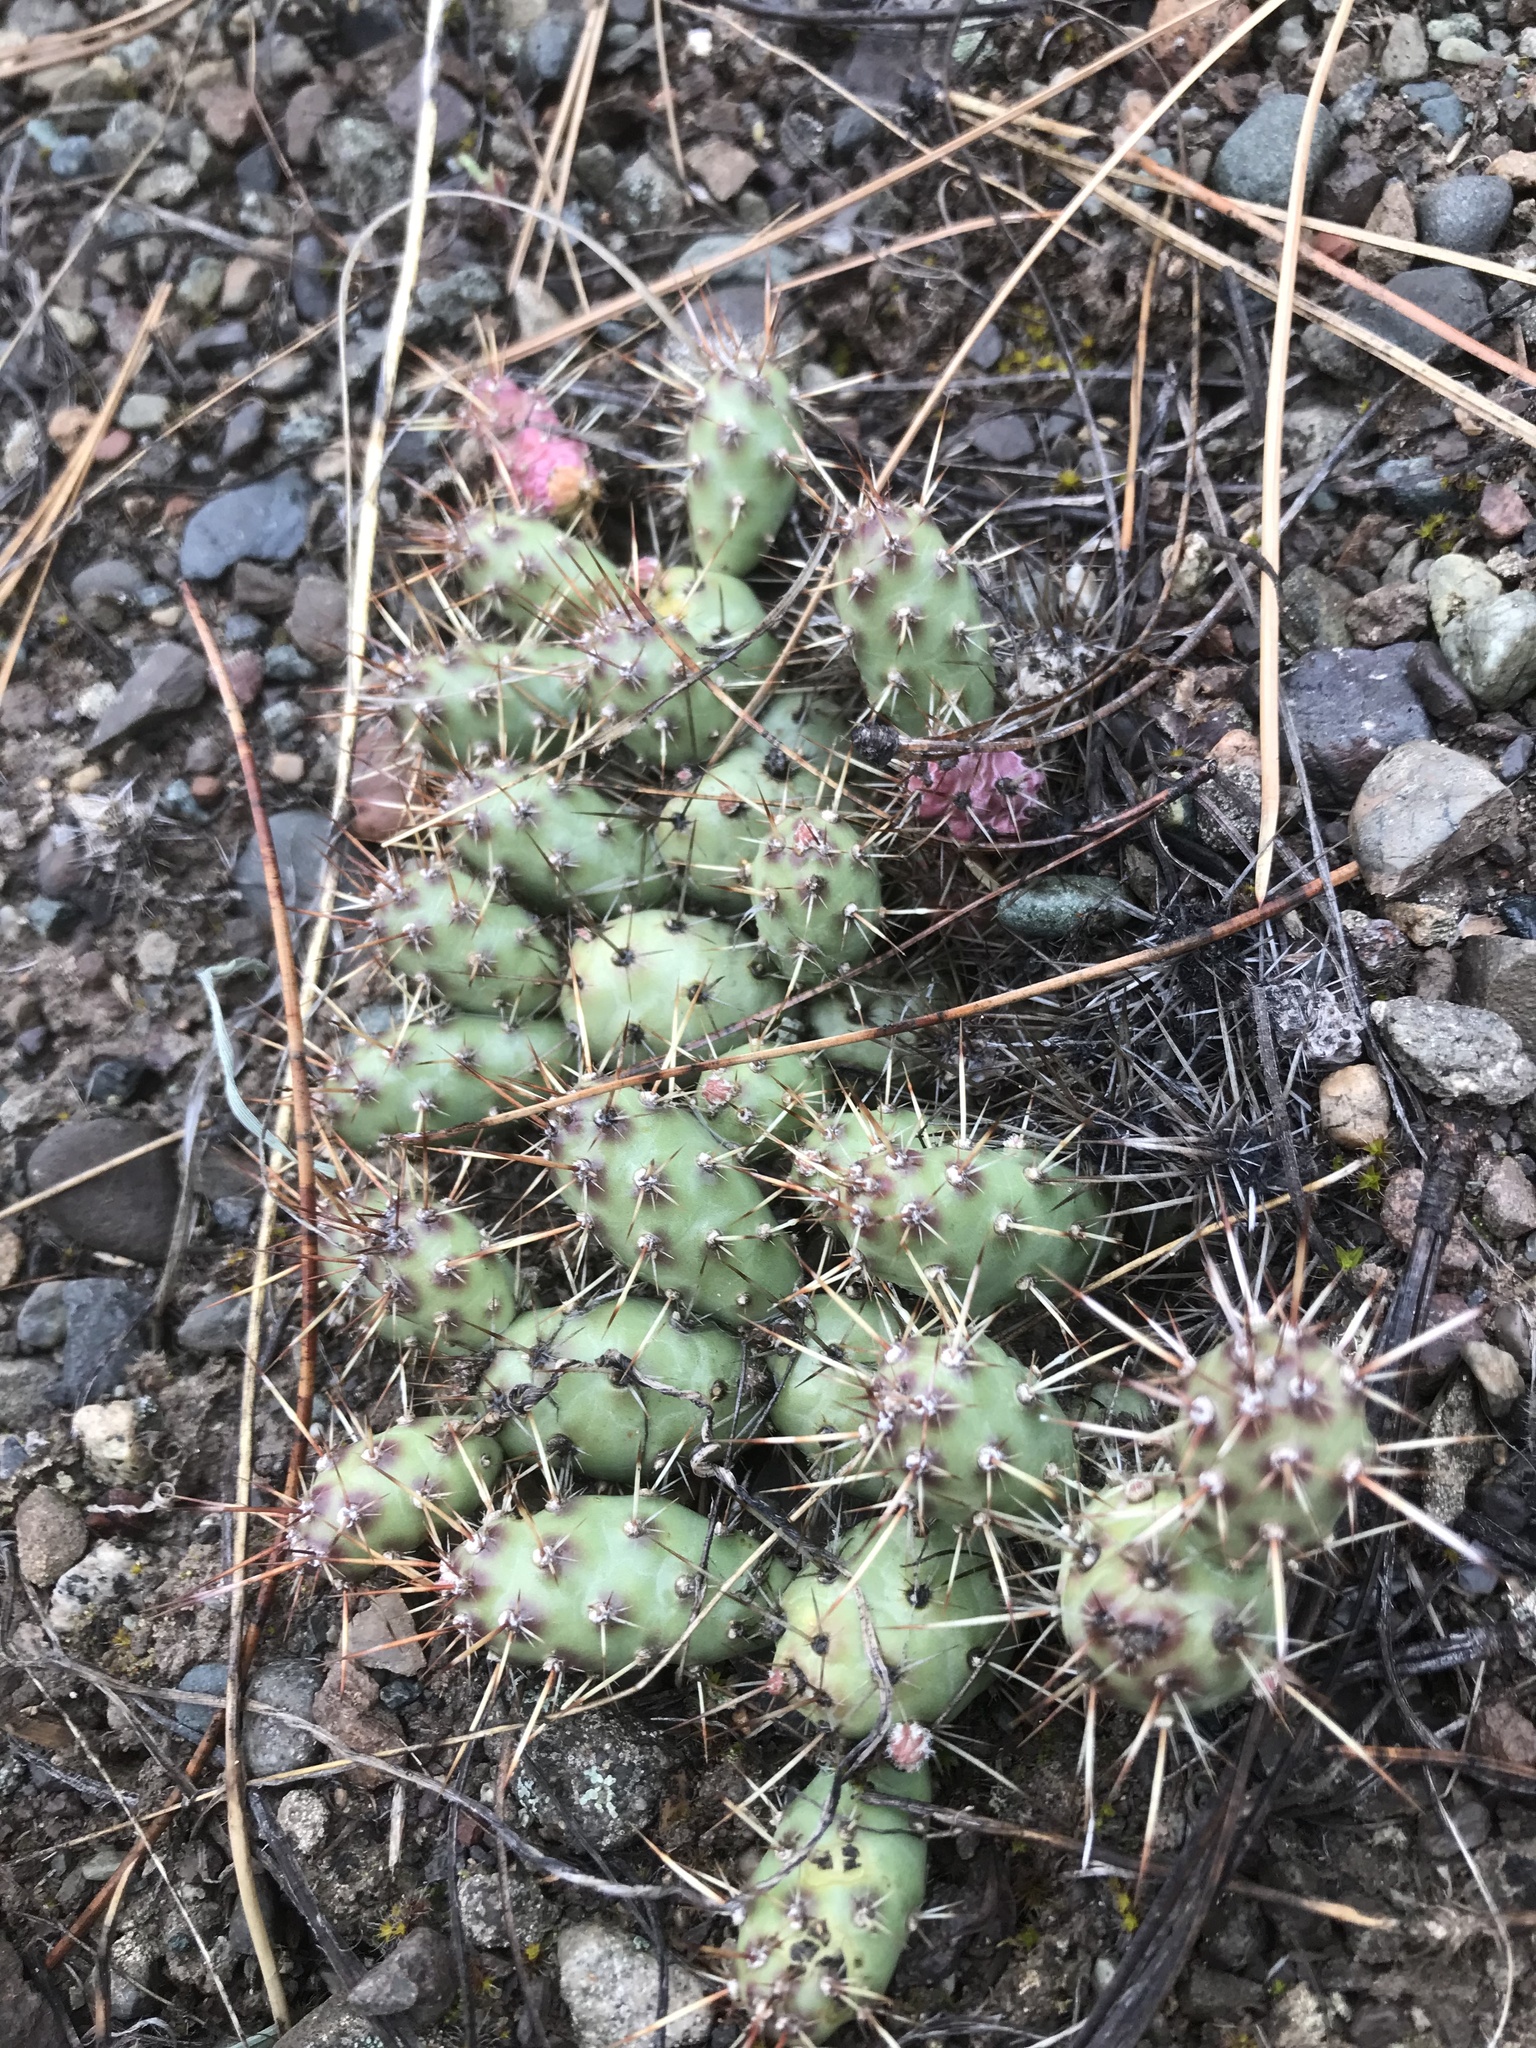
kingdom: Plantae
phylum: Tracheophyta
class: Magnoliopsida
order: Caryophyllales
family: Cactaceae
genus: Opuntia
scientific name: Opuntia fragilis
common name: Brittle cactus
